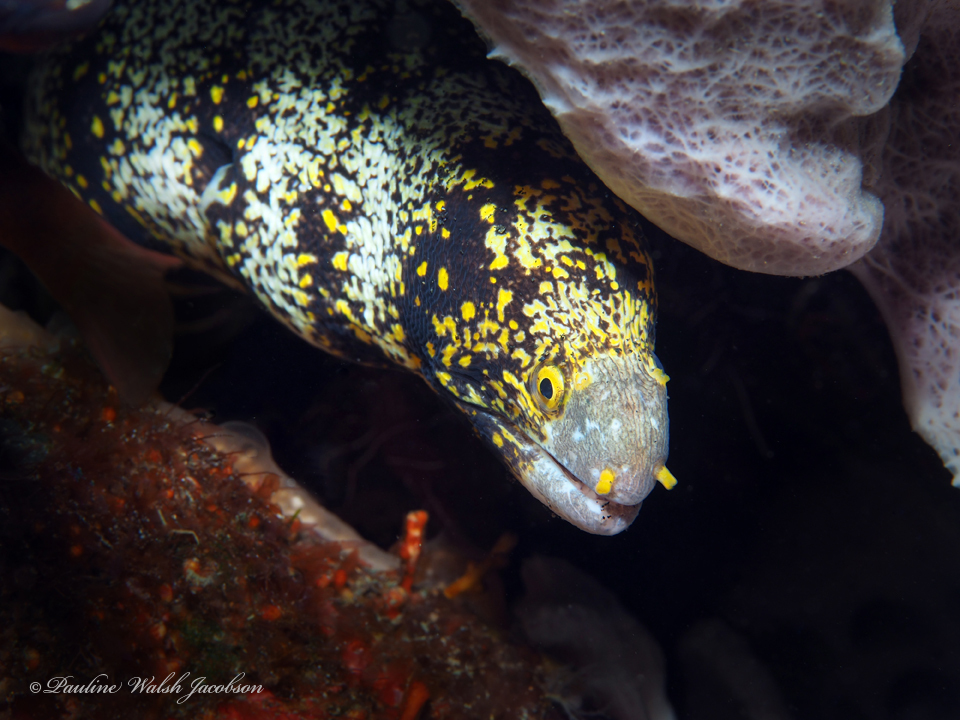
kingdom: Animalia
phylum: Chordata
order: Anguilliformes
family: Muraenidae
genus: Echidna
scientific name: Echidna nebulosa
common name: Snowflake moray
